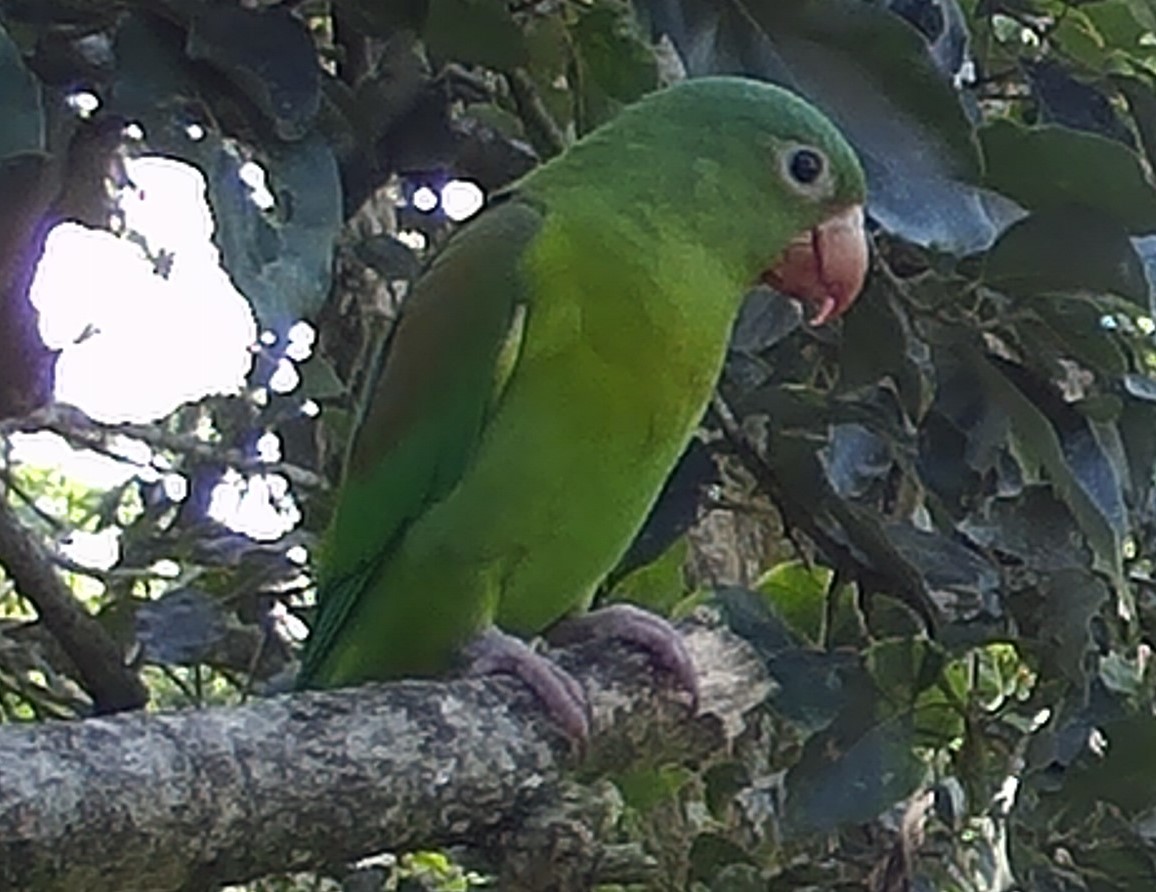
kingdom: Animalia
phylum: Chordata
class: Aves
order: Psittaciformes
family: Psittacidae
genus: Brotogeris
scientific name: Brotogeris jugularis
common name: Orange-chinned parakeet
